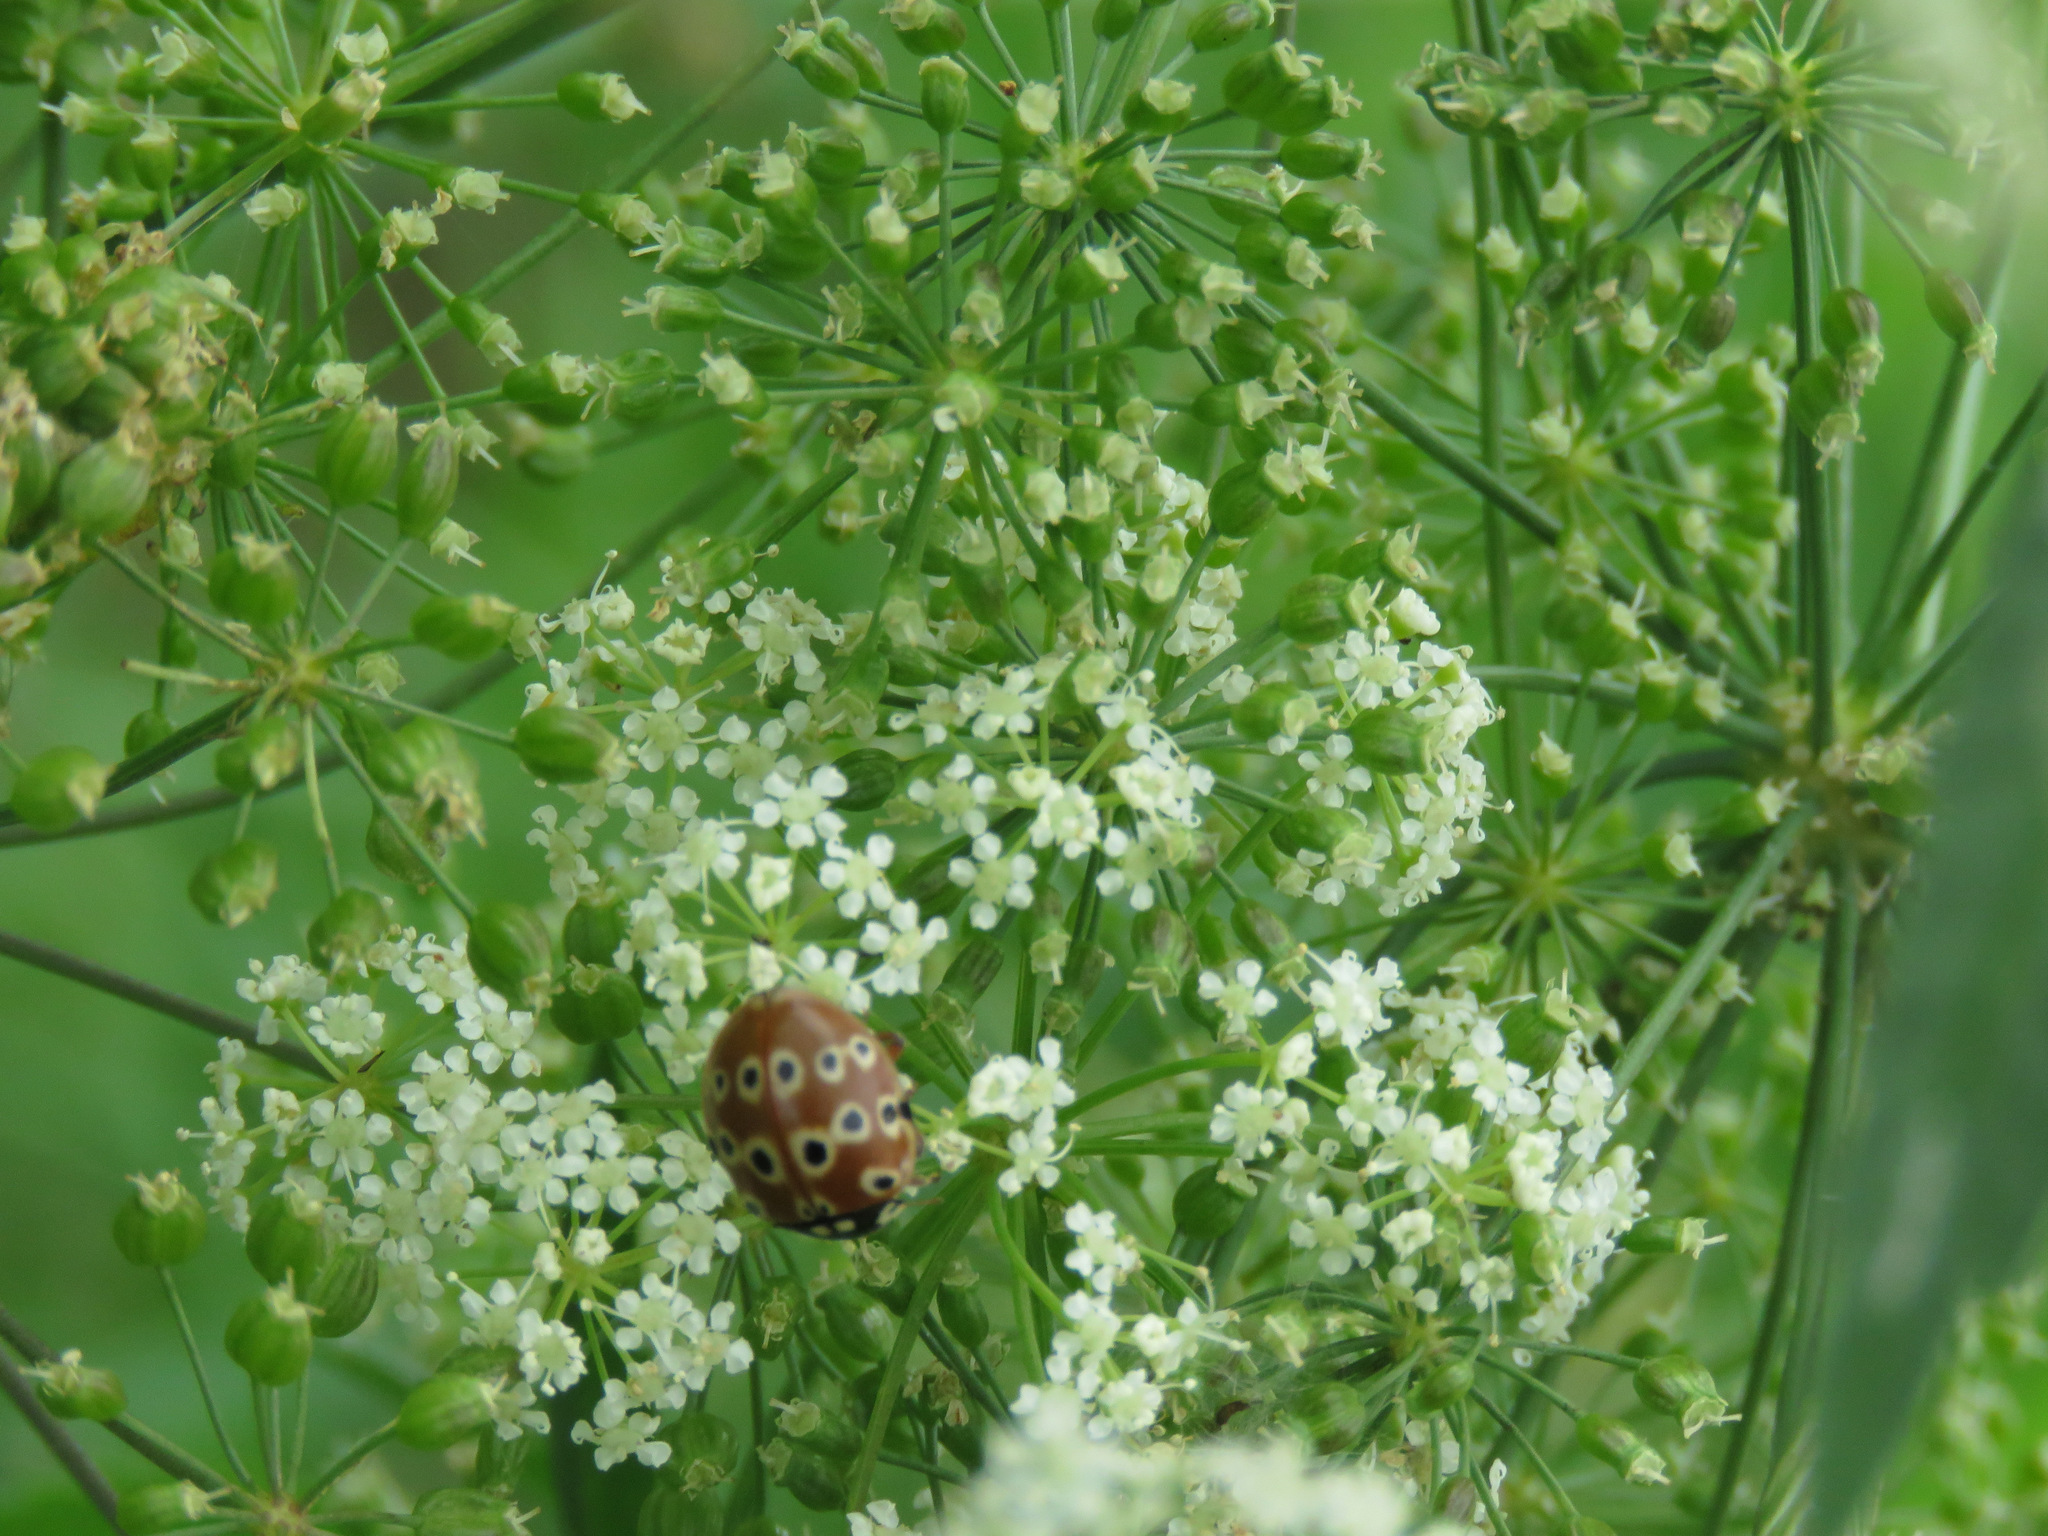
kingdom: Animalia
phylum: Arthropoda
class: Insecta
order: Coleoptera
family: Coccinellidae
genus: Anatis
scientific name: Anatis mali
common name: Eye-spotted lady beetle
